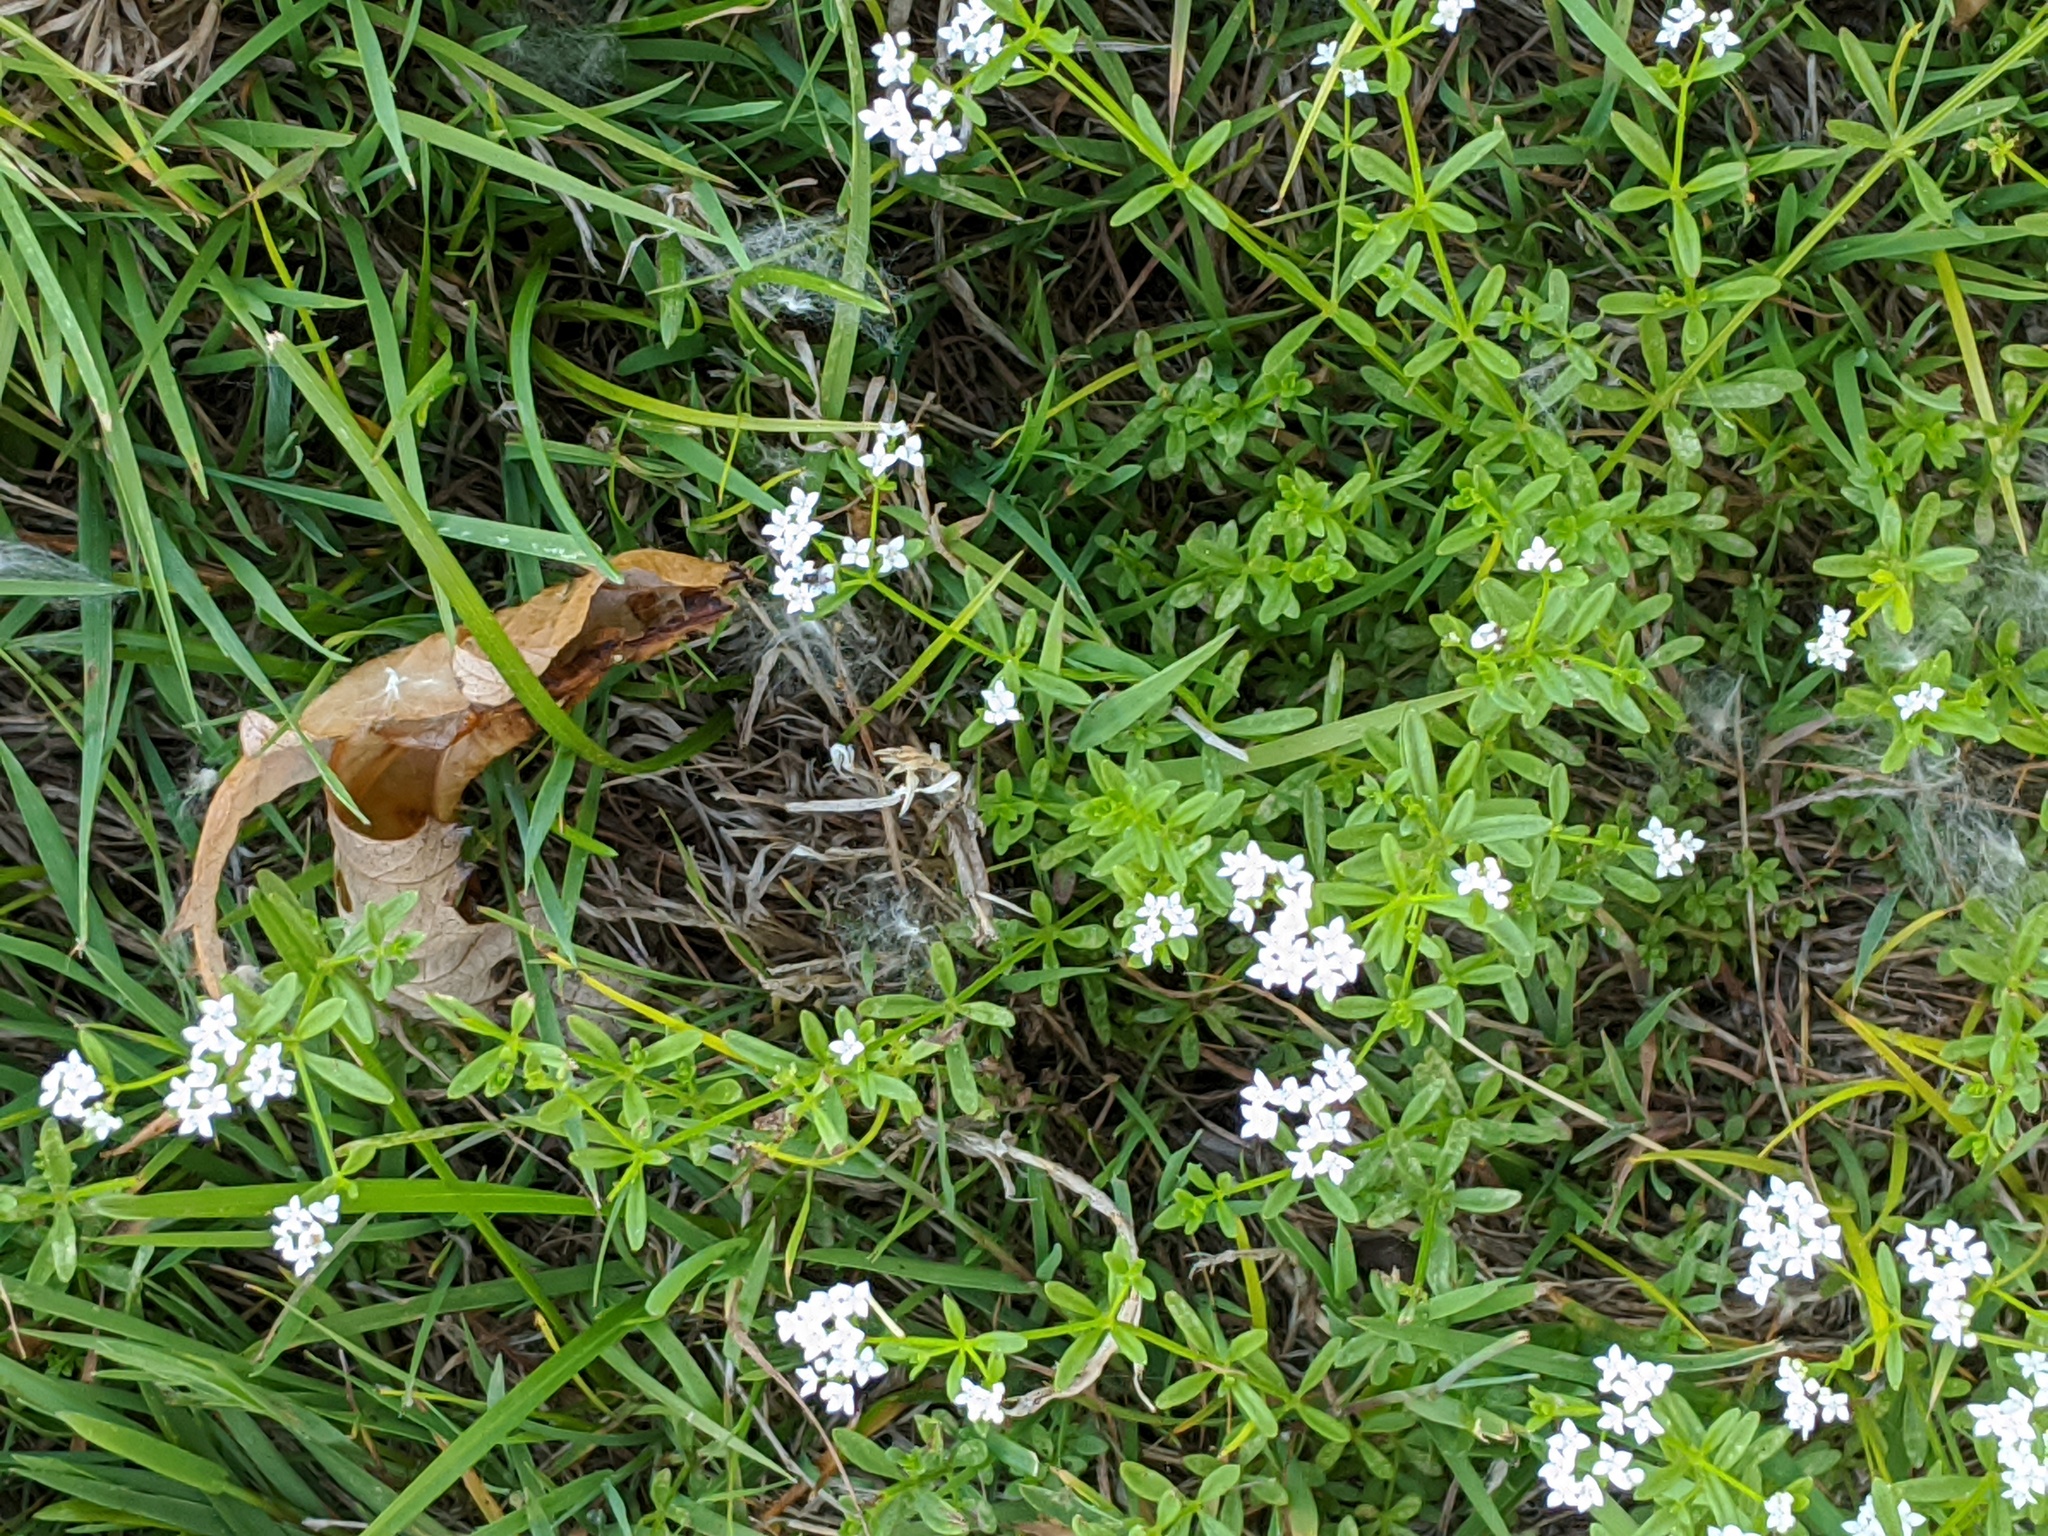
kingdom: Plantae
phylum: Tracheophyta
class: Magnoliopsida
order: Gentianales
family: Rubiaceae
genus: Galium
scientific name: Galium palustre
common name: Common marsh-bedstraw
